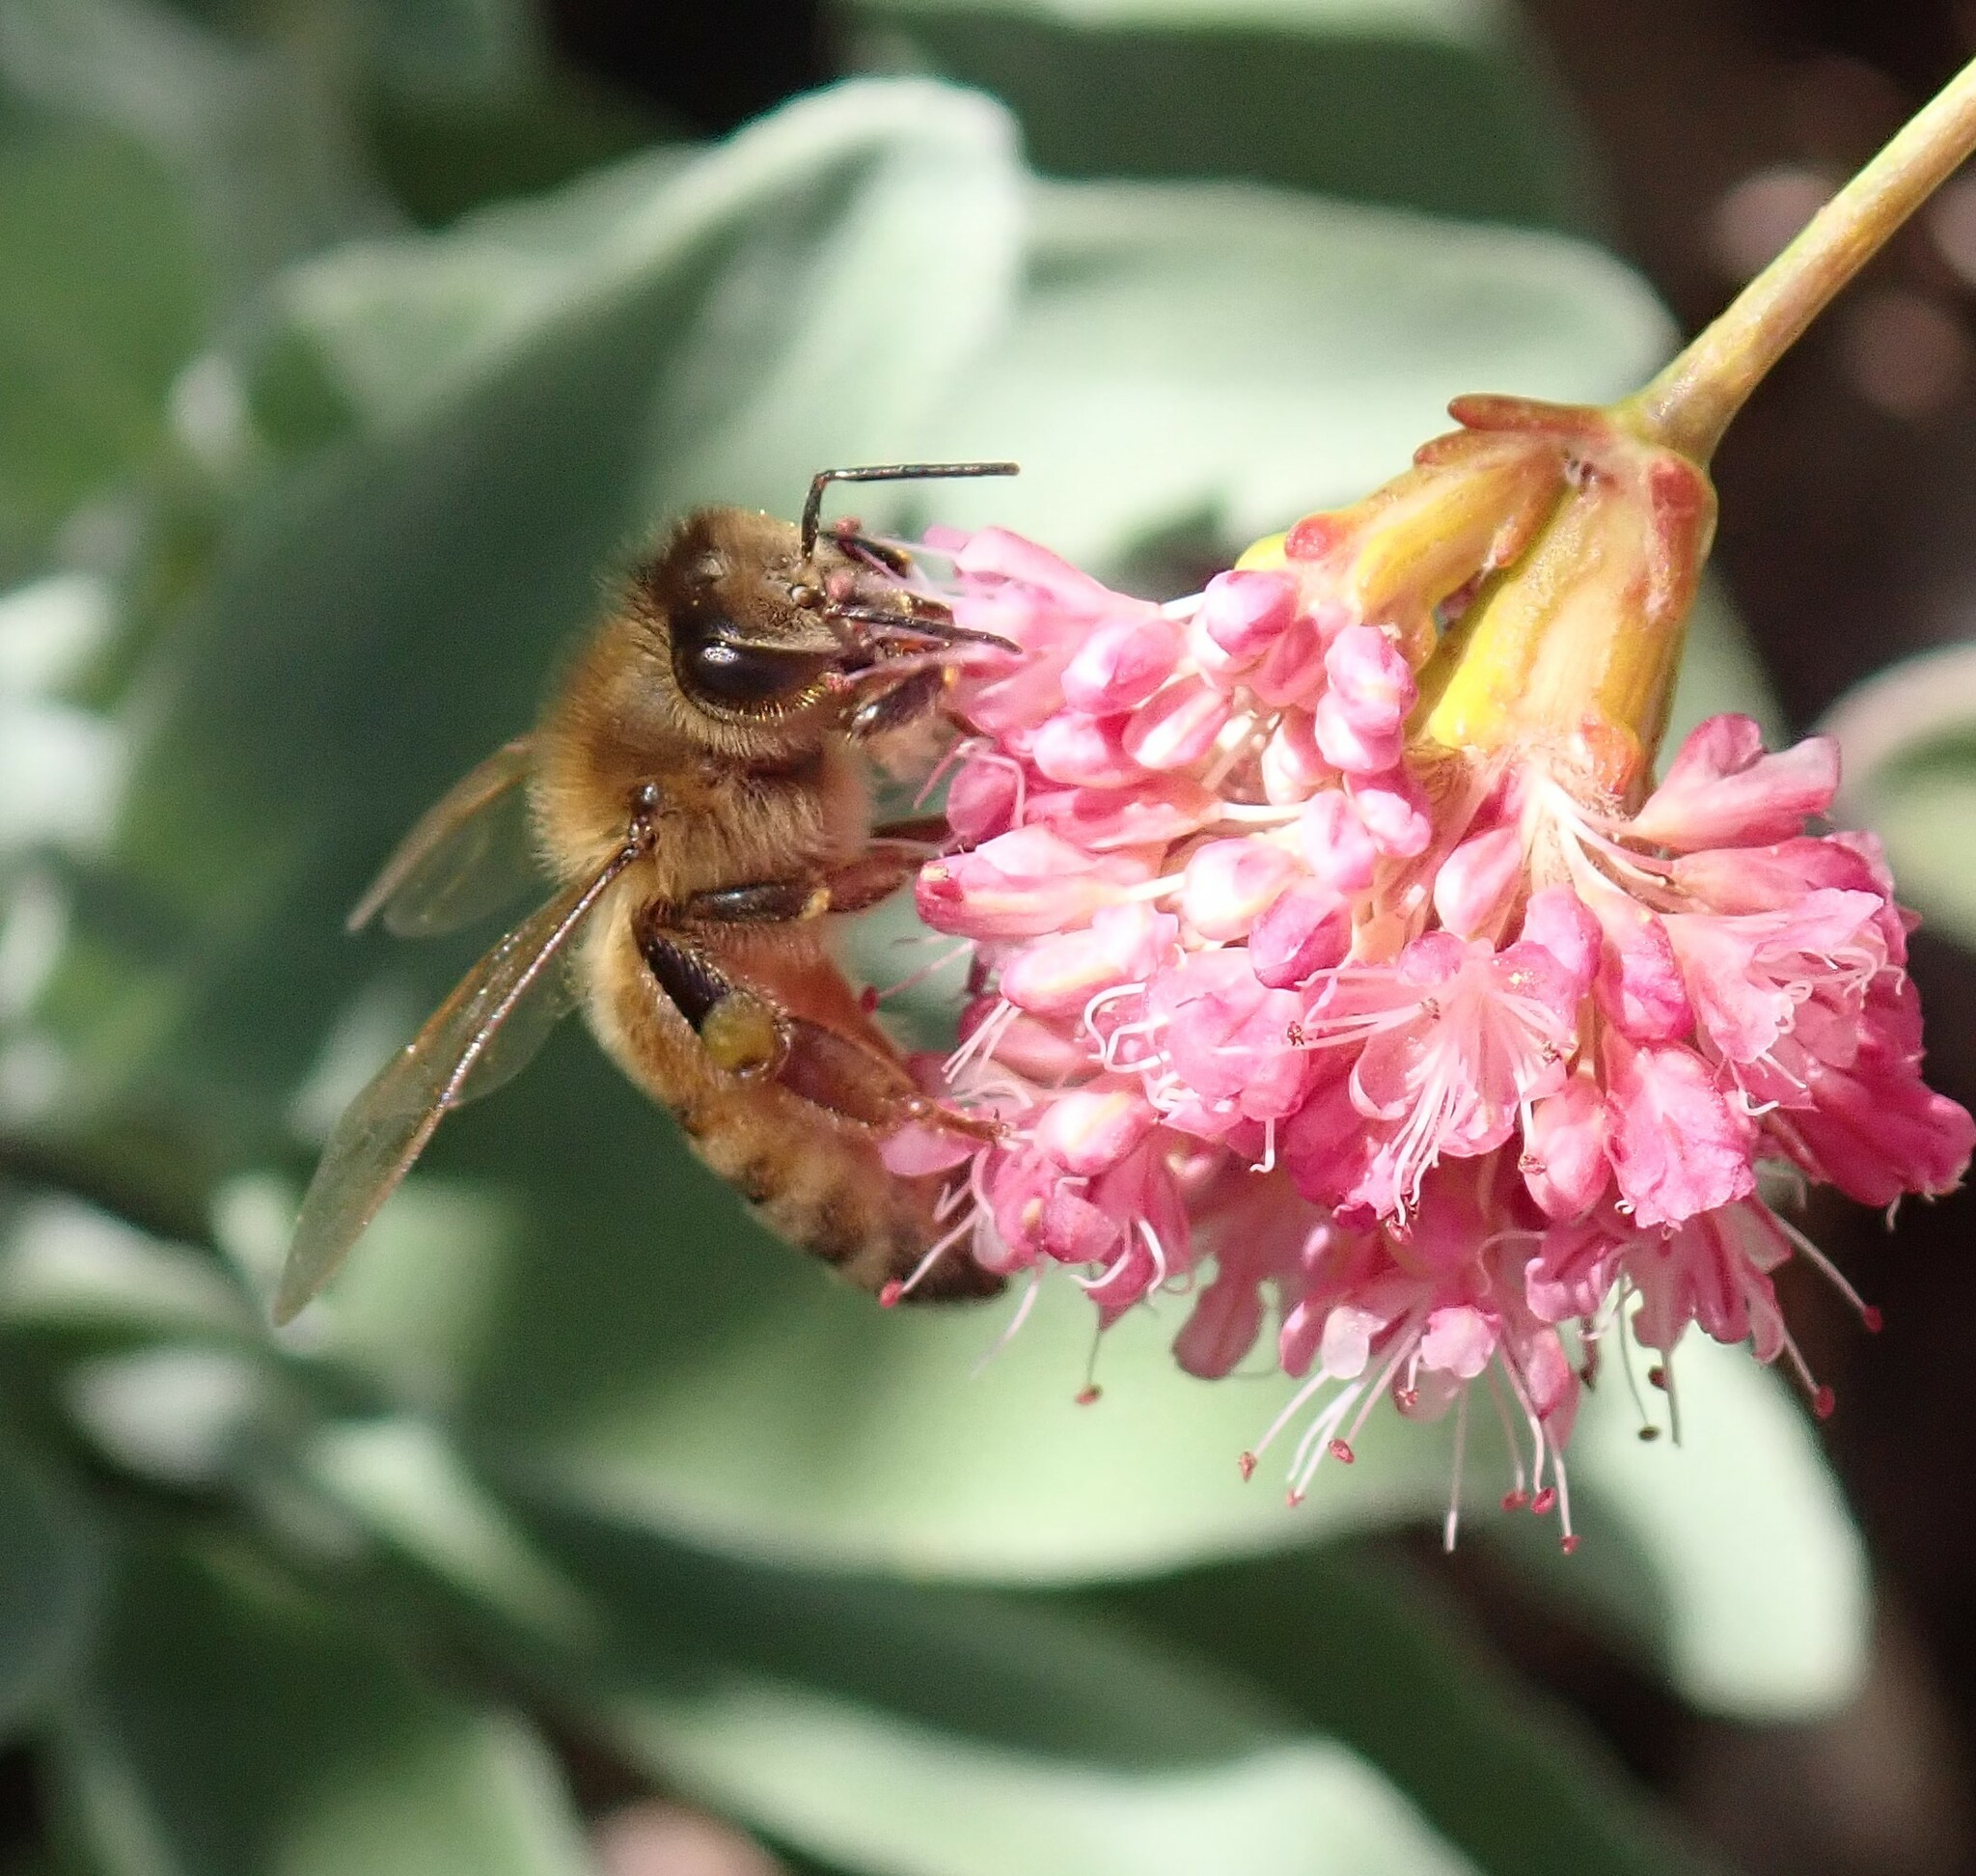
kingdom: Animalia
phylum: Arthropoda
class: Insecta
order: Hymenoptera
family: Apidae
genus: Apis
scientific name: Apis mellifera
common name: Honey bee
